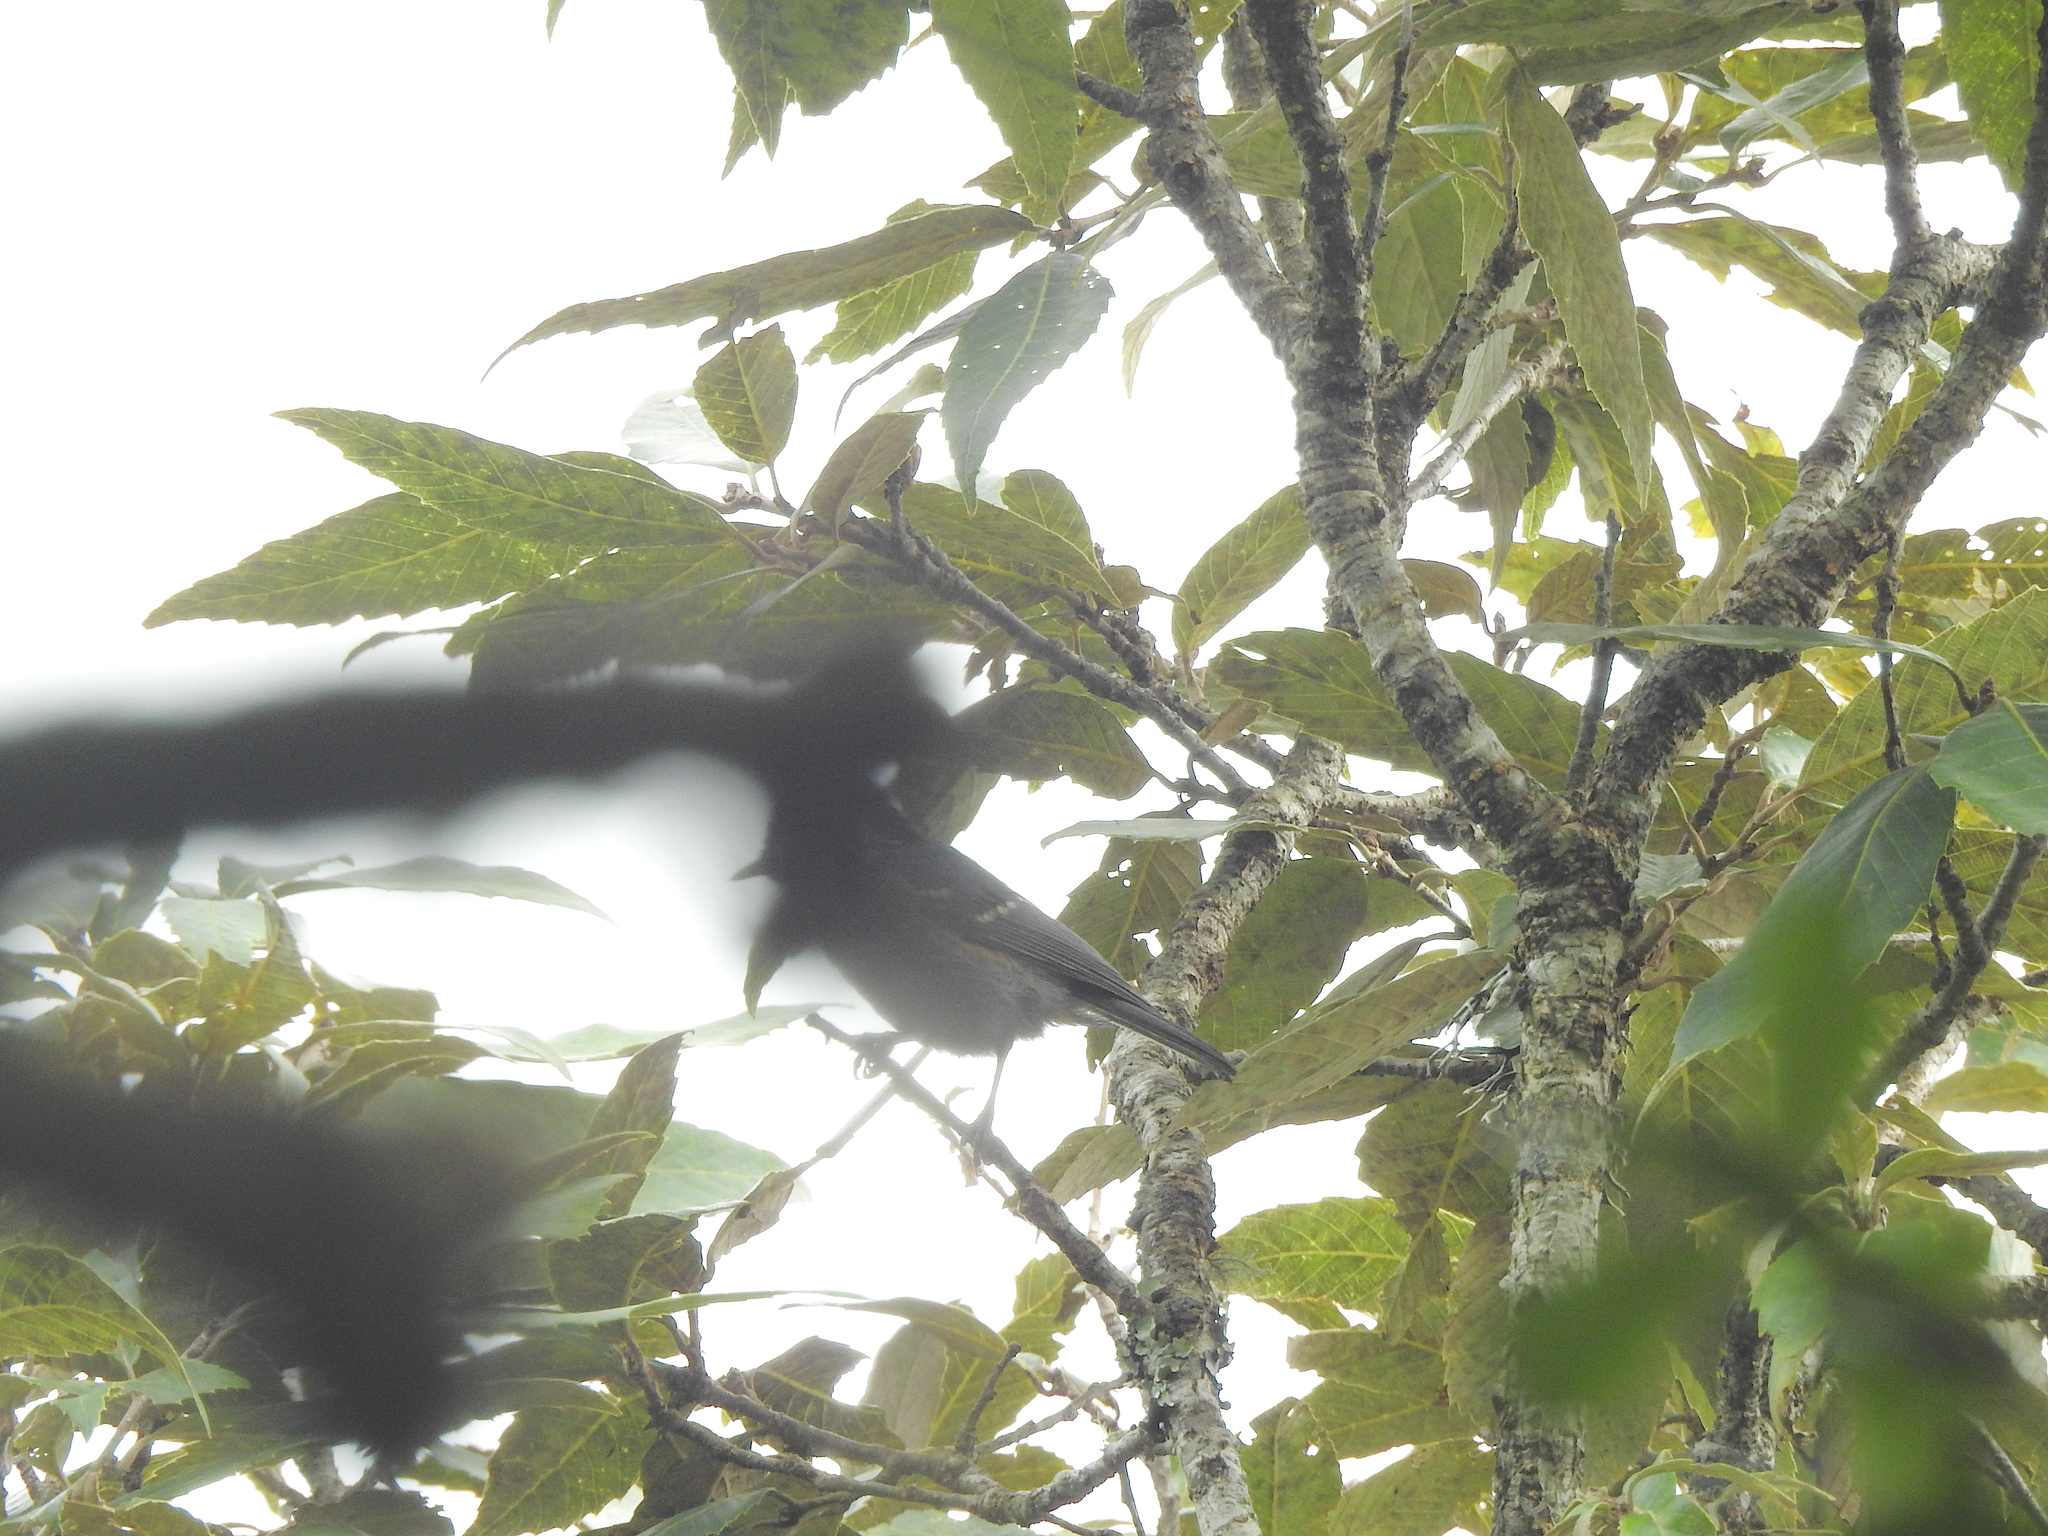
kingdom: Animalia
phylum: Chordata
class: Aves
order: Passeriformes
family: Paridae
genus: Periparus
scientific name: Periparus ater
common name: Coal tit
